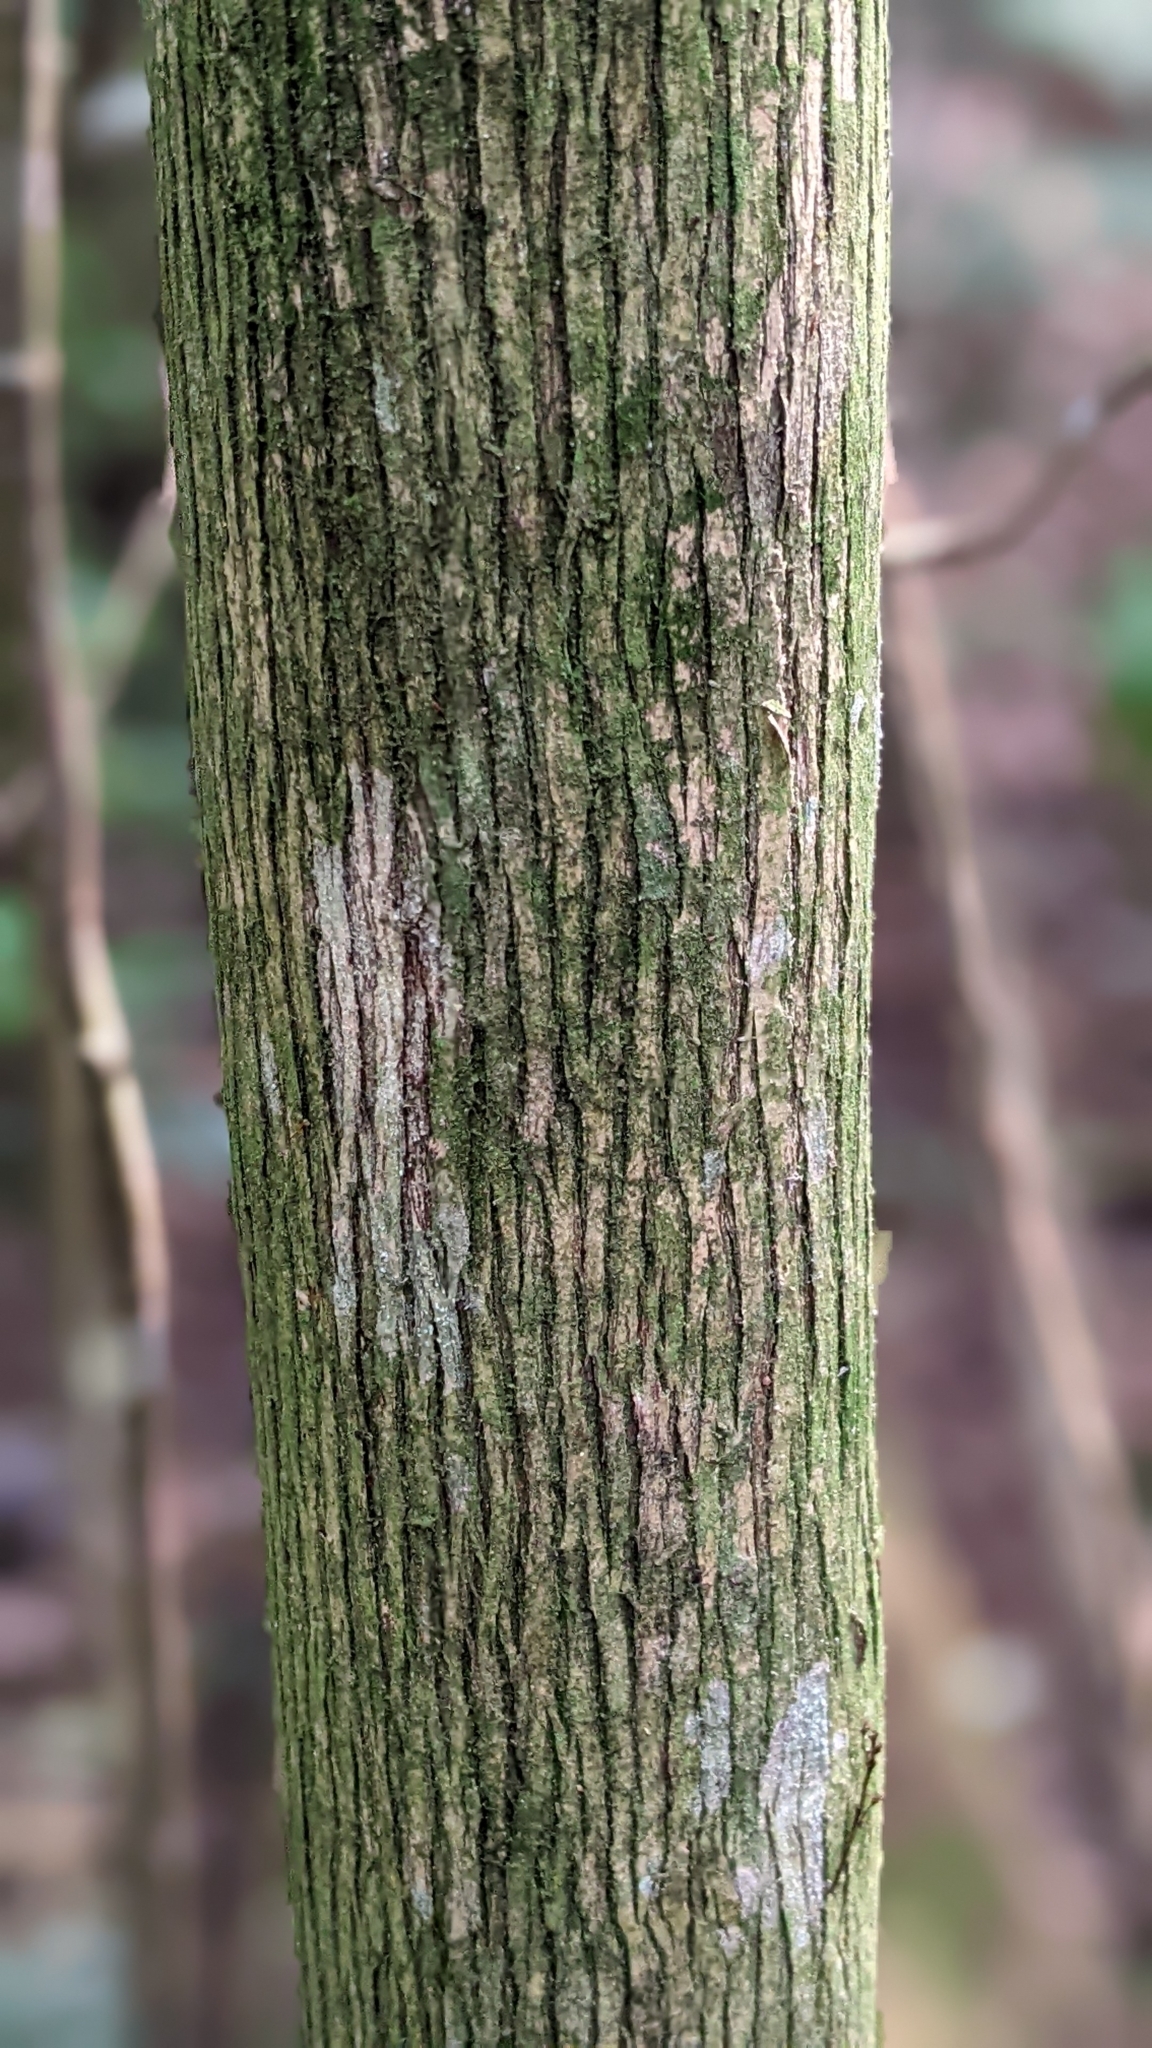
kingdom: Plantae
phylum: Tracheophyta
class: Magnoliopsida
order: Gentianales
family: Rubiaceae
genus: Diplospora
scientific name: Diplospora dubia
